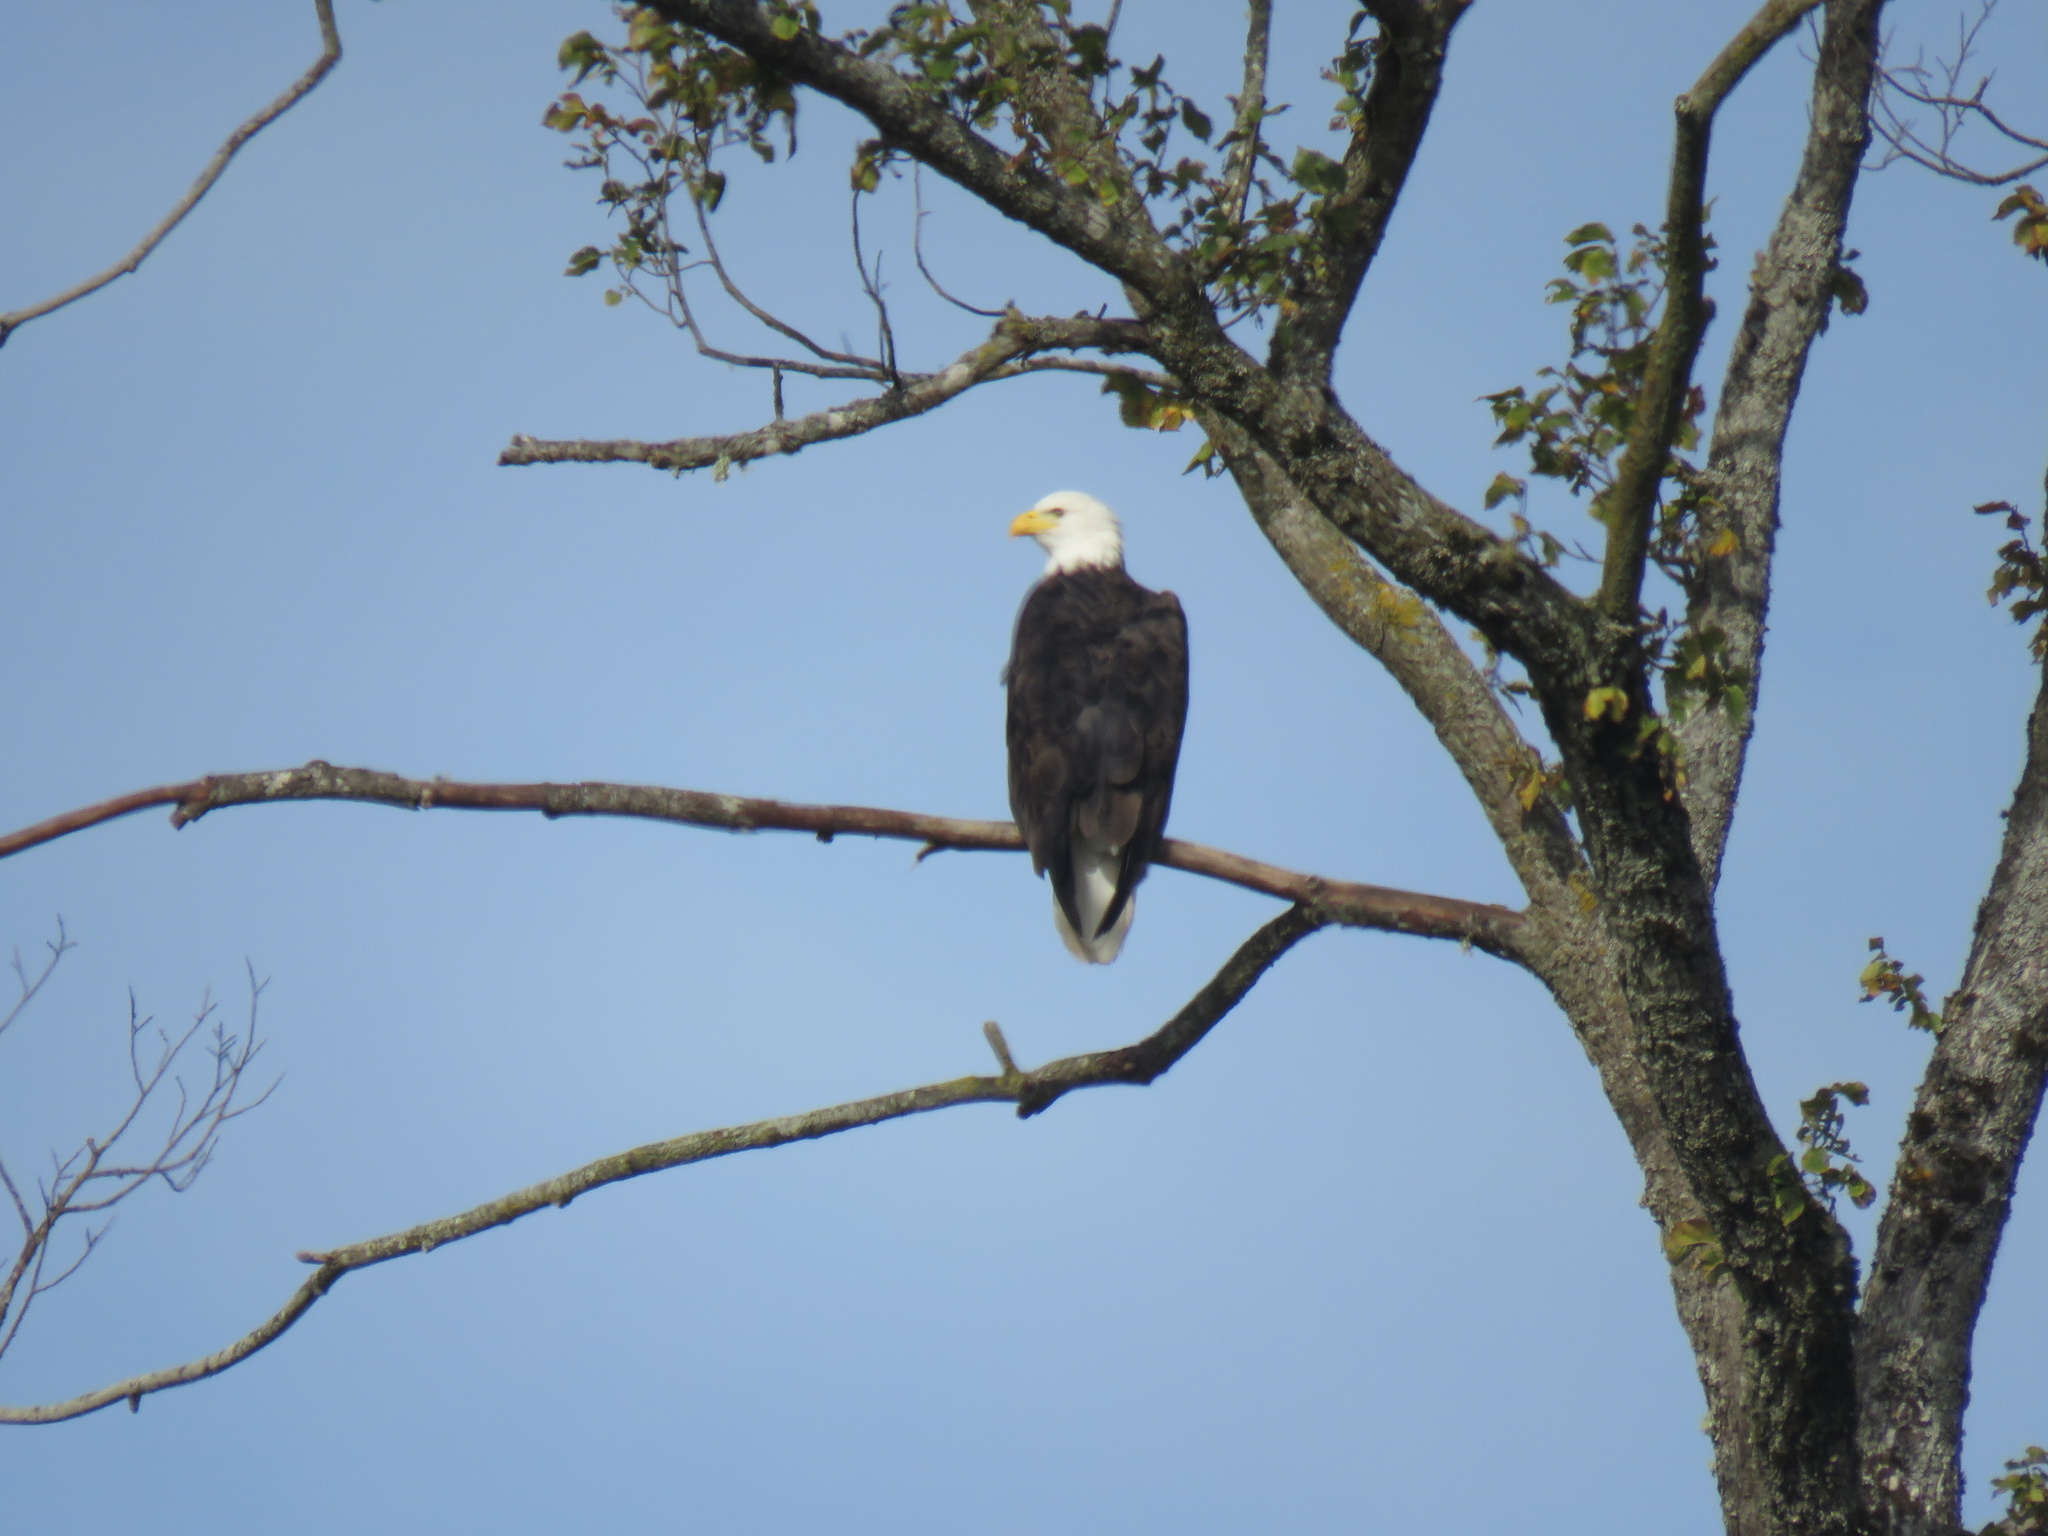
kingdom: Animalia
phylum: Chordata
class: Aves
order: Accipitriformes
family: Accipitridae
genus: Haliaeetus
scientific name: Haliaeetus leucocephalus
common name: Bald eagle
